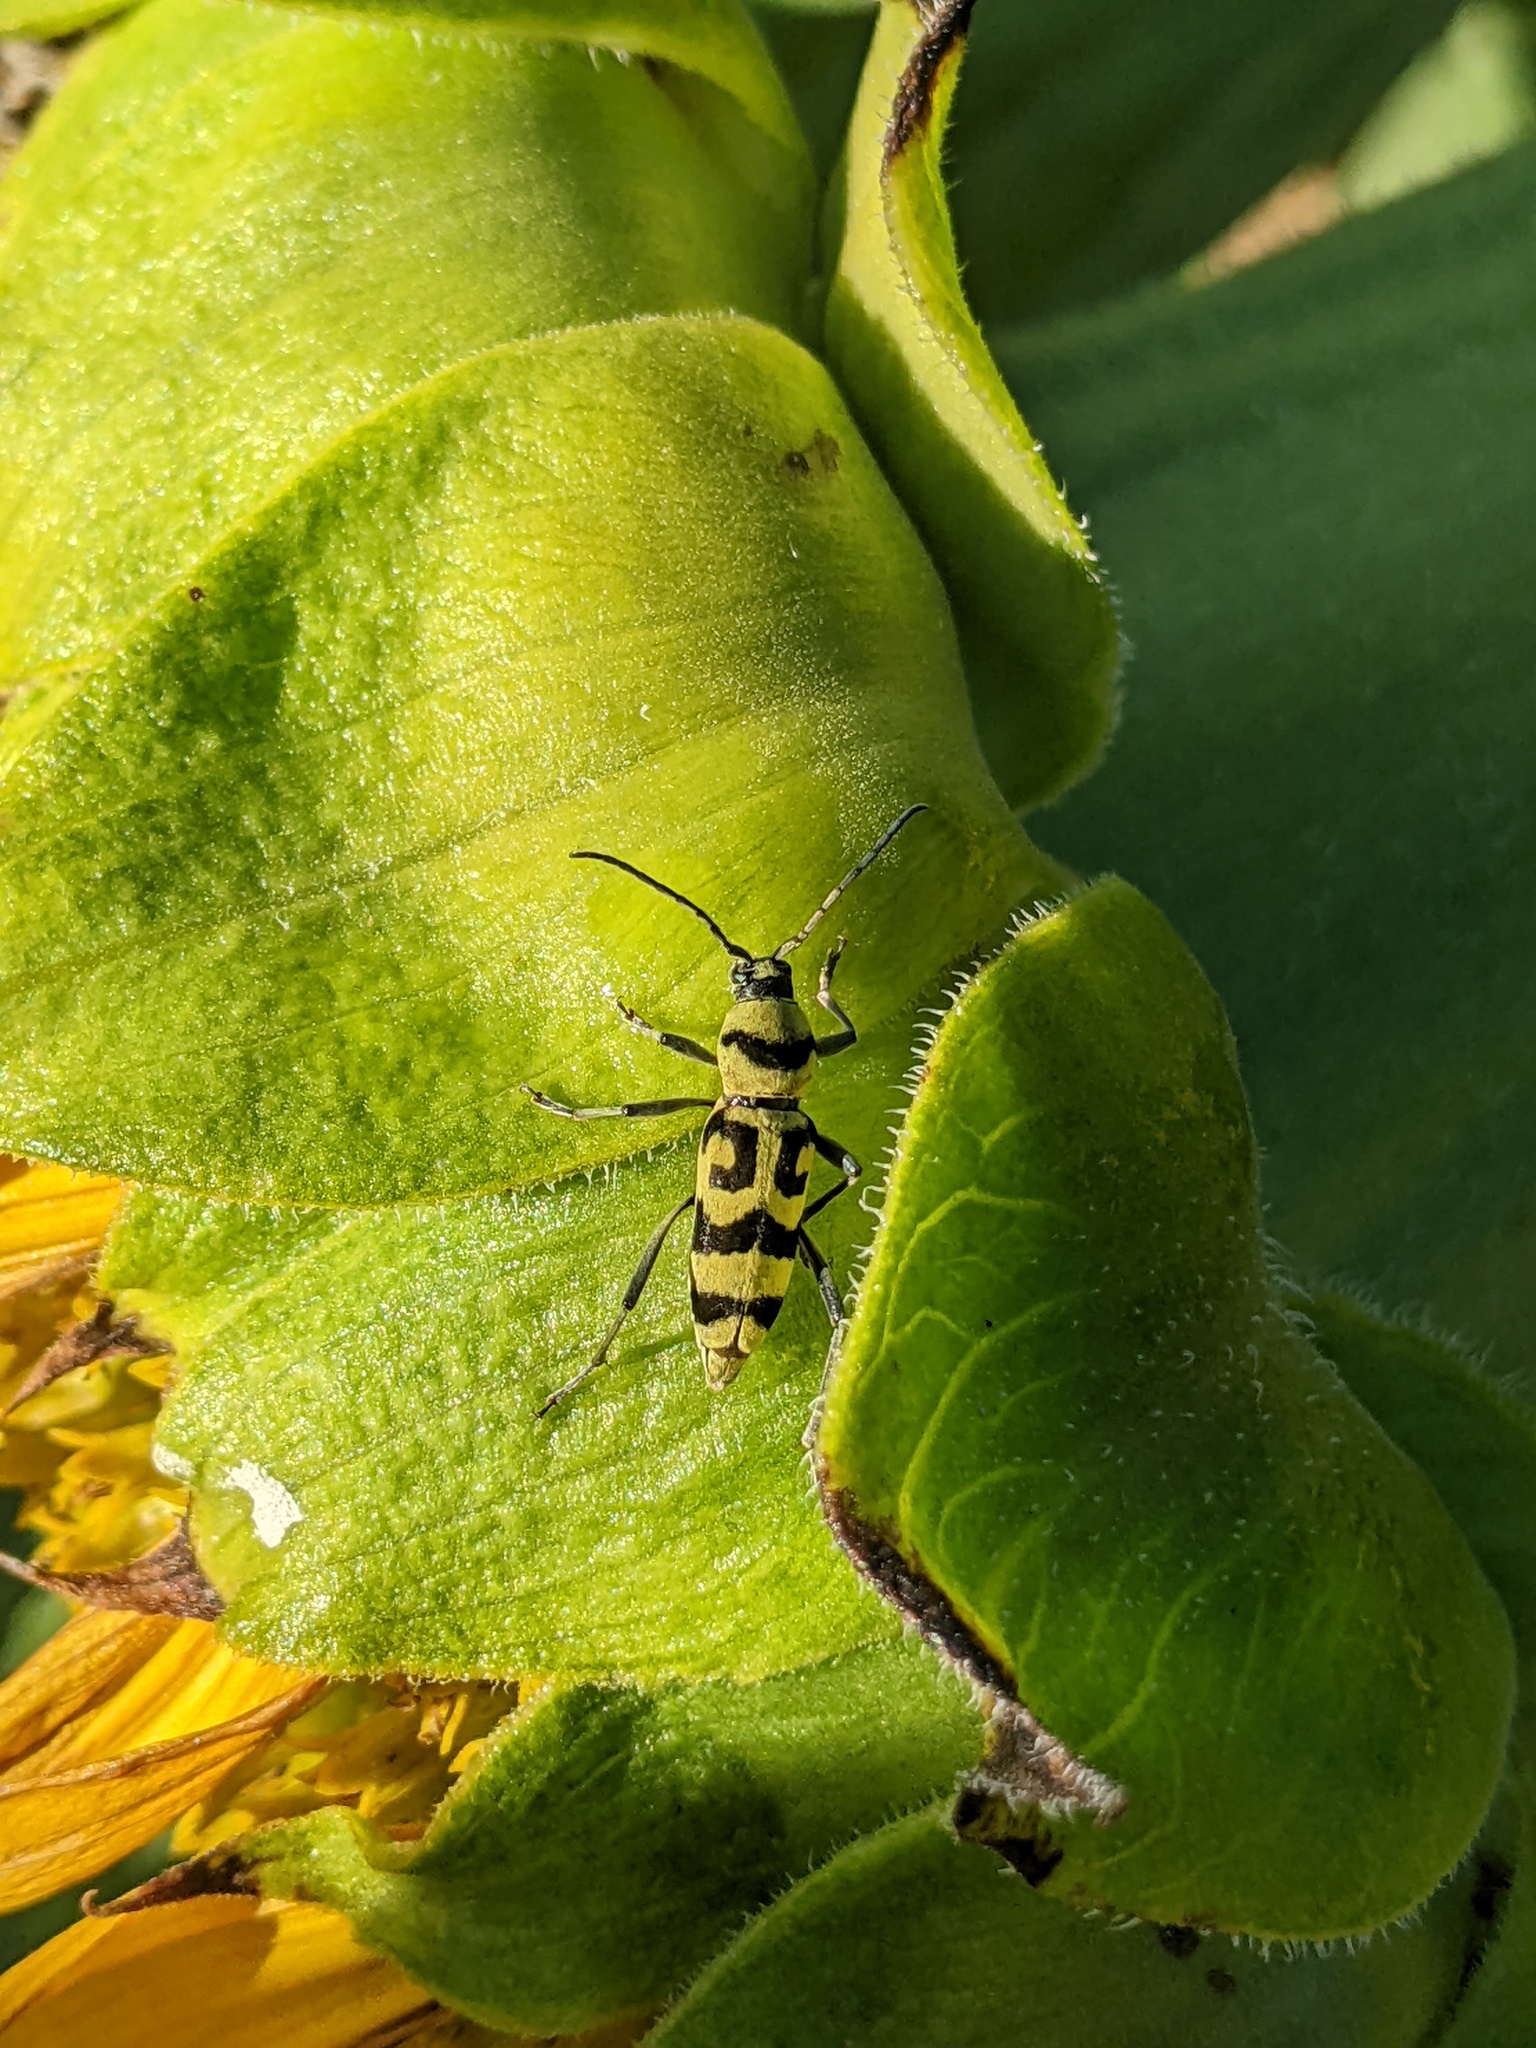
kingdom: Animalia
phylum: Arthropoda
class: Insecta
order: Coleoptera
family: Cerambycidae
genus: Chlorophorus
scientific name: Chlorophorus varius
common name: Grape wood borer
